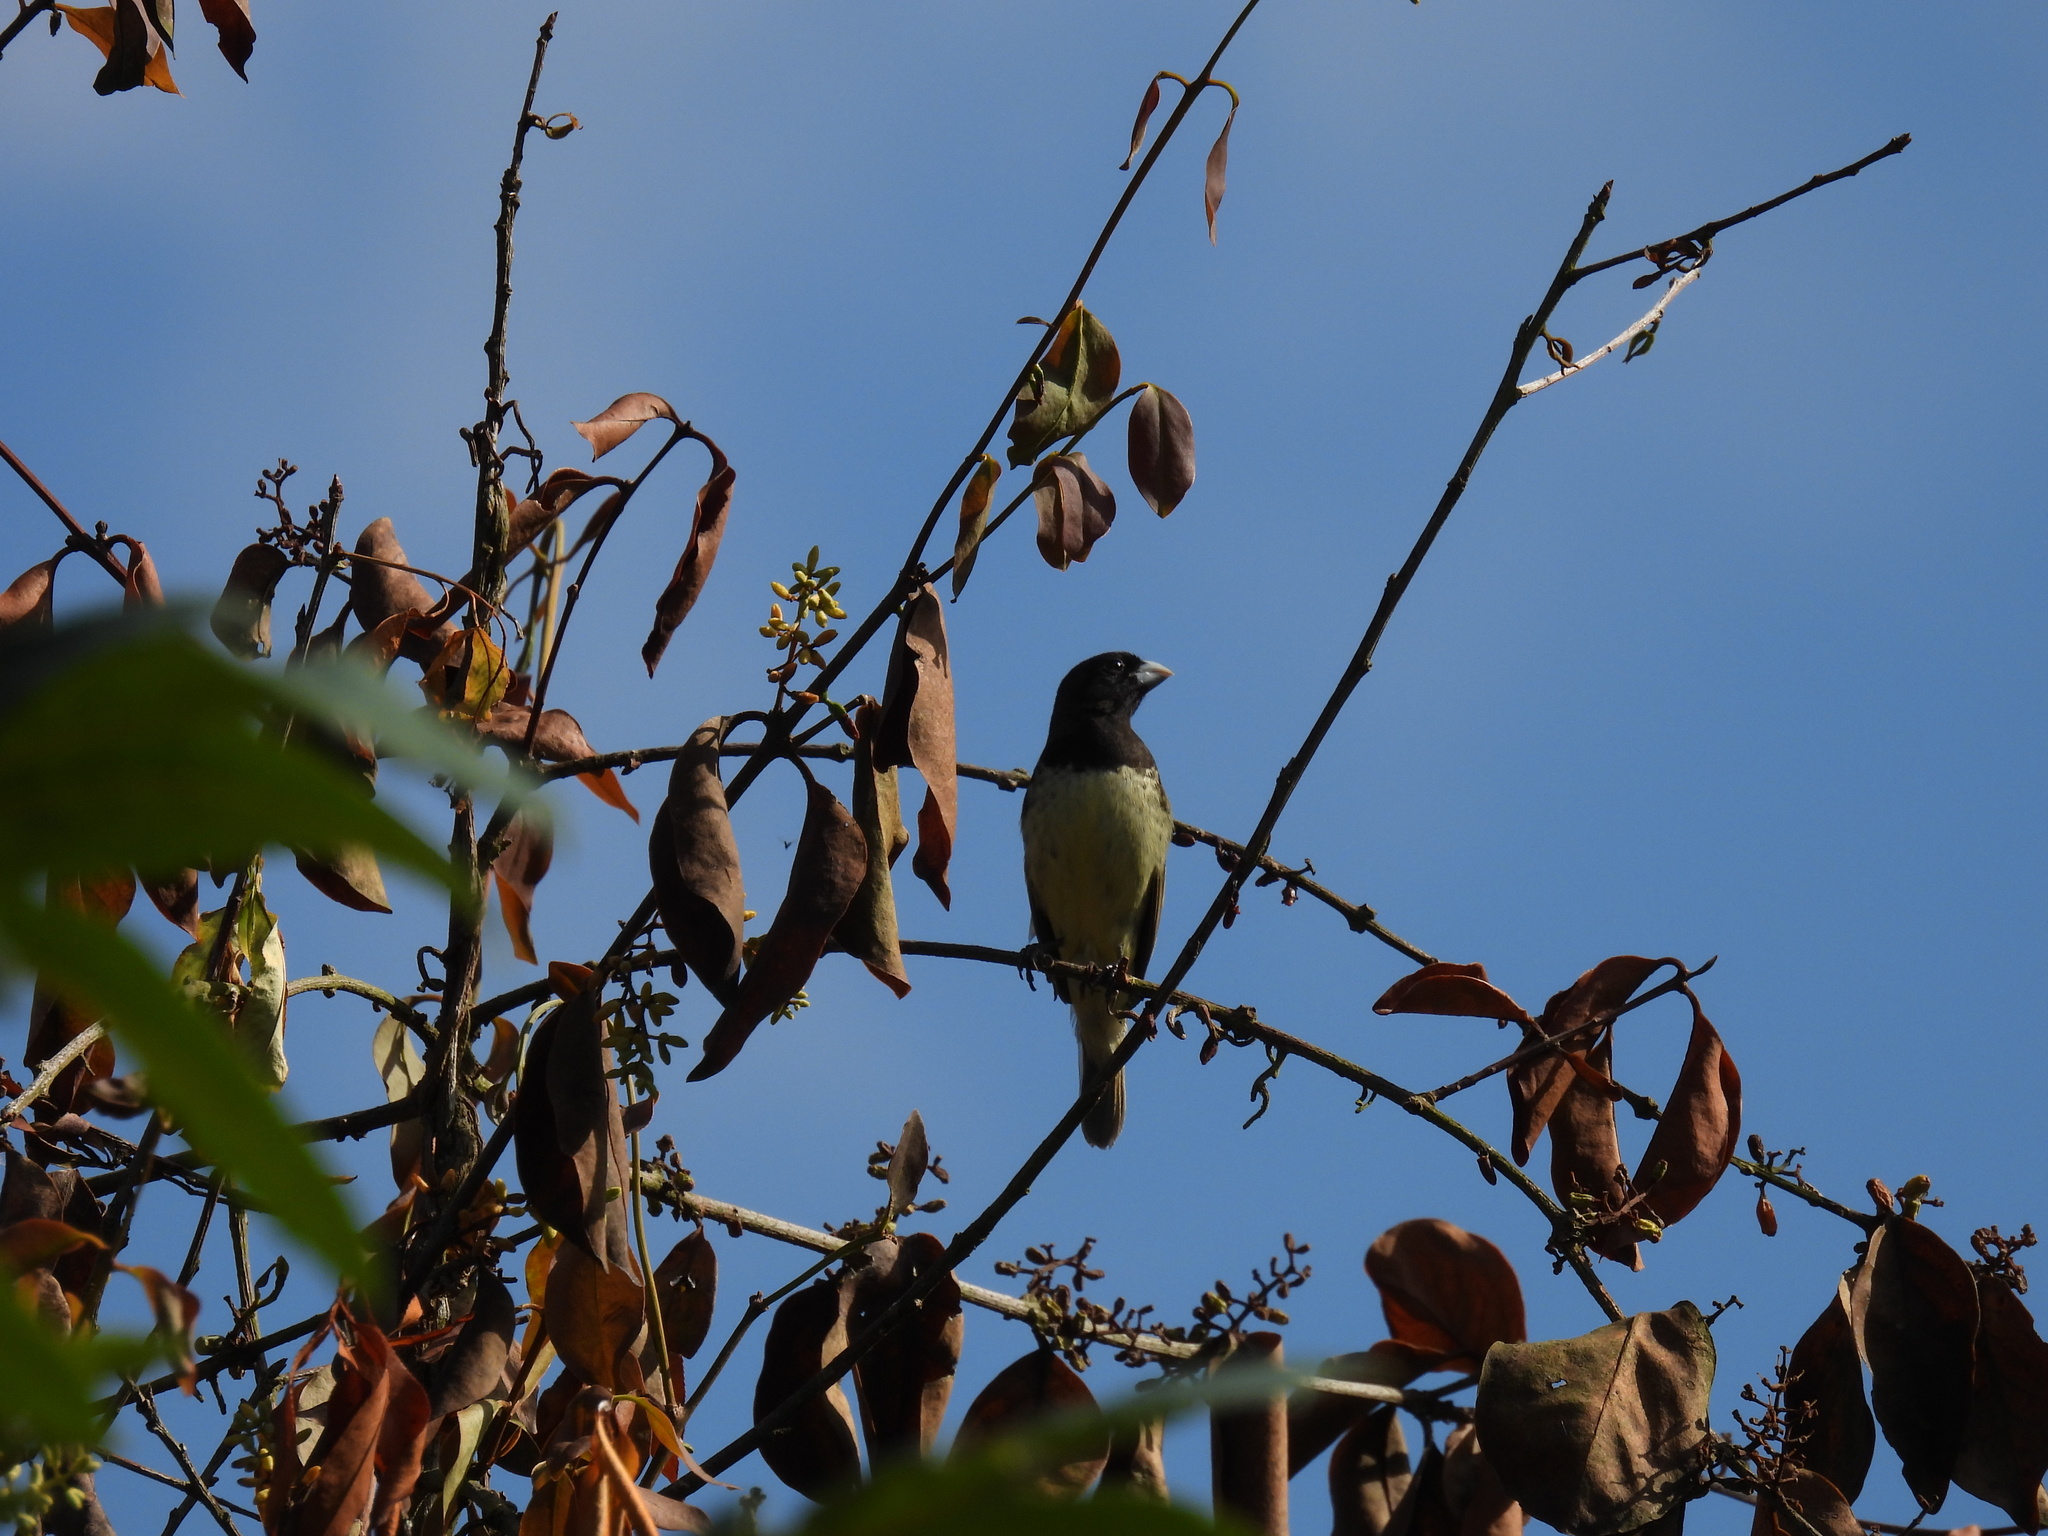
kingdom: Animalia
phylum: Chordata
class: Aves
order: Passeriformes
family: Thraupidae
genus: Sporophila
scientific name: Sporophila nigricollis
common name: Yellow-bellied seedeater
